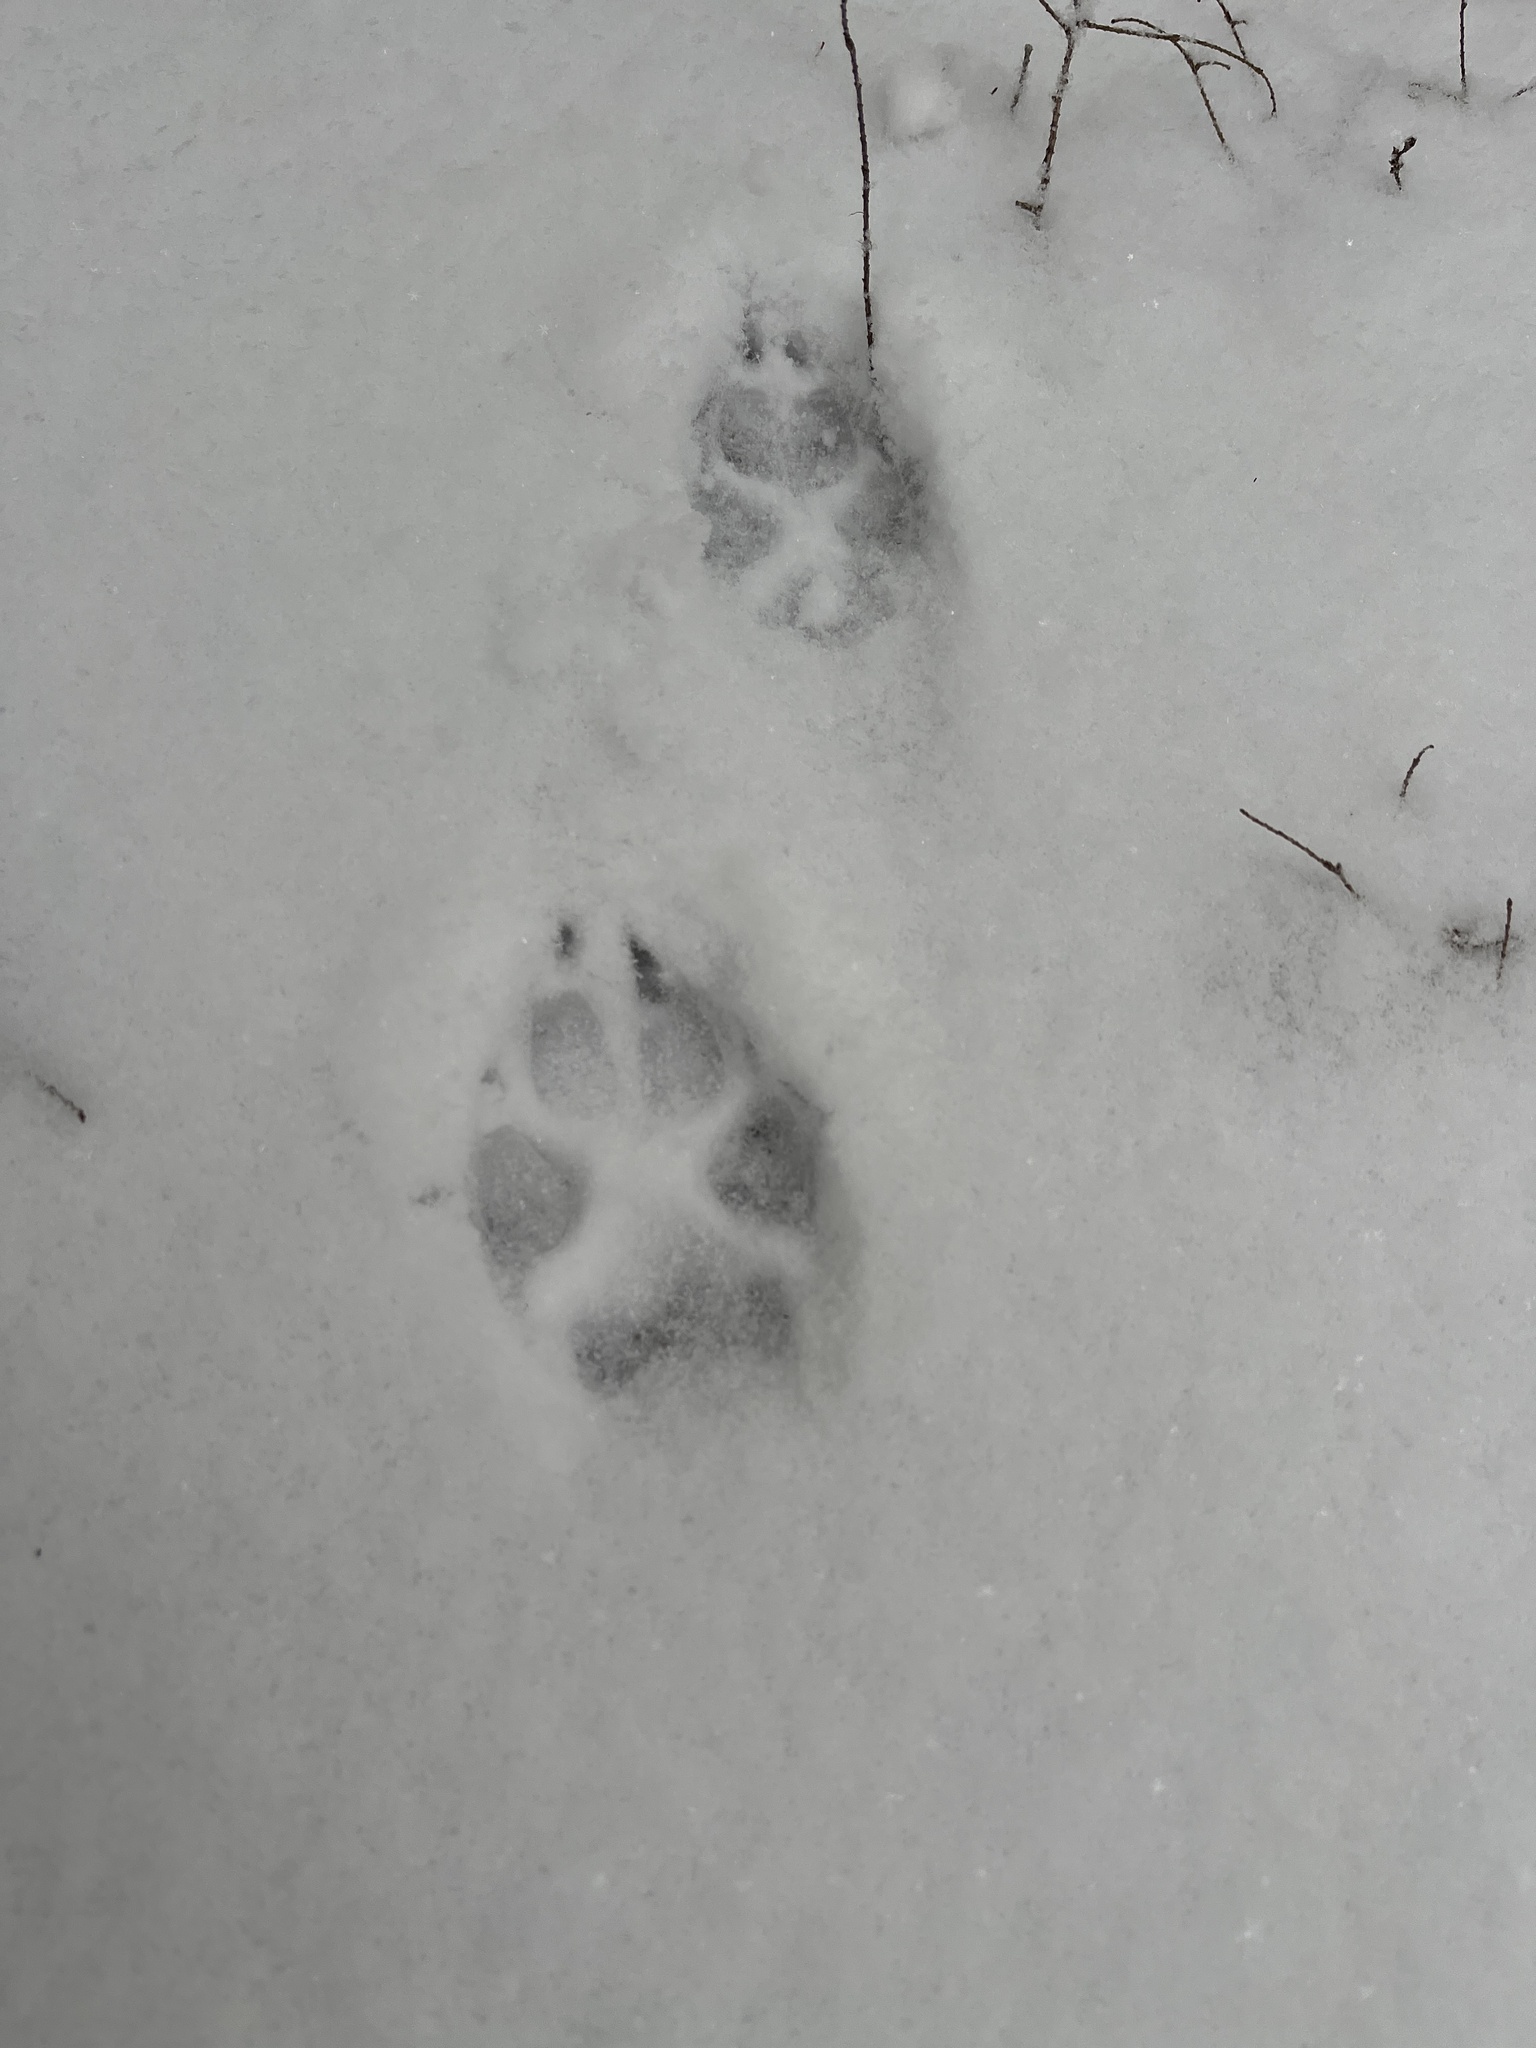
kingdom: Animalia
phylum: Chordata
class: Mammalia
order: Carnivora
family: Canidae
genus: Canis
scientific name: Canis latrans
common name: Coyote
